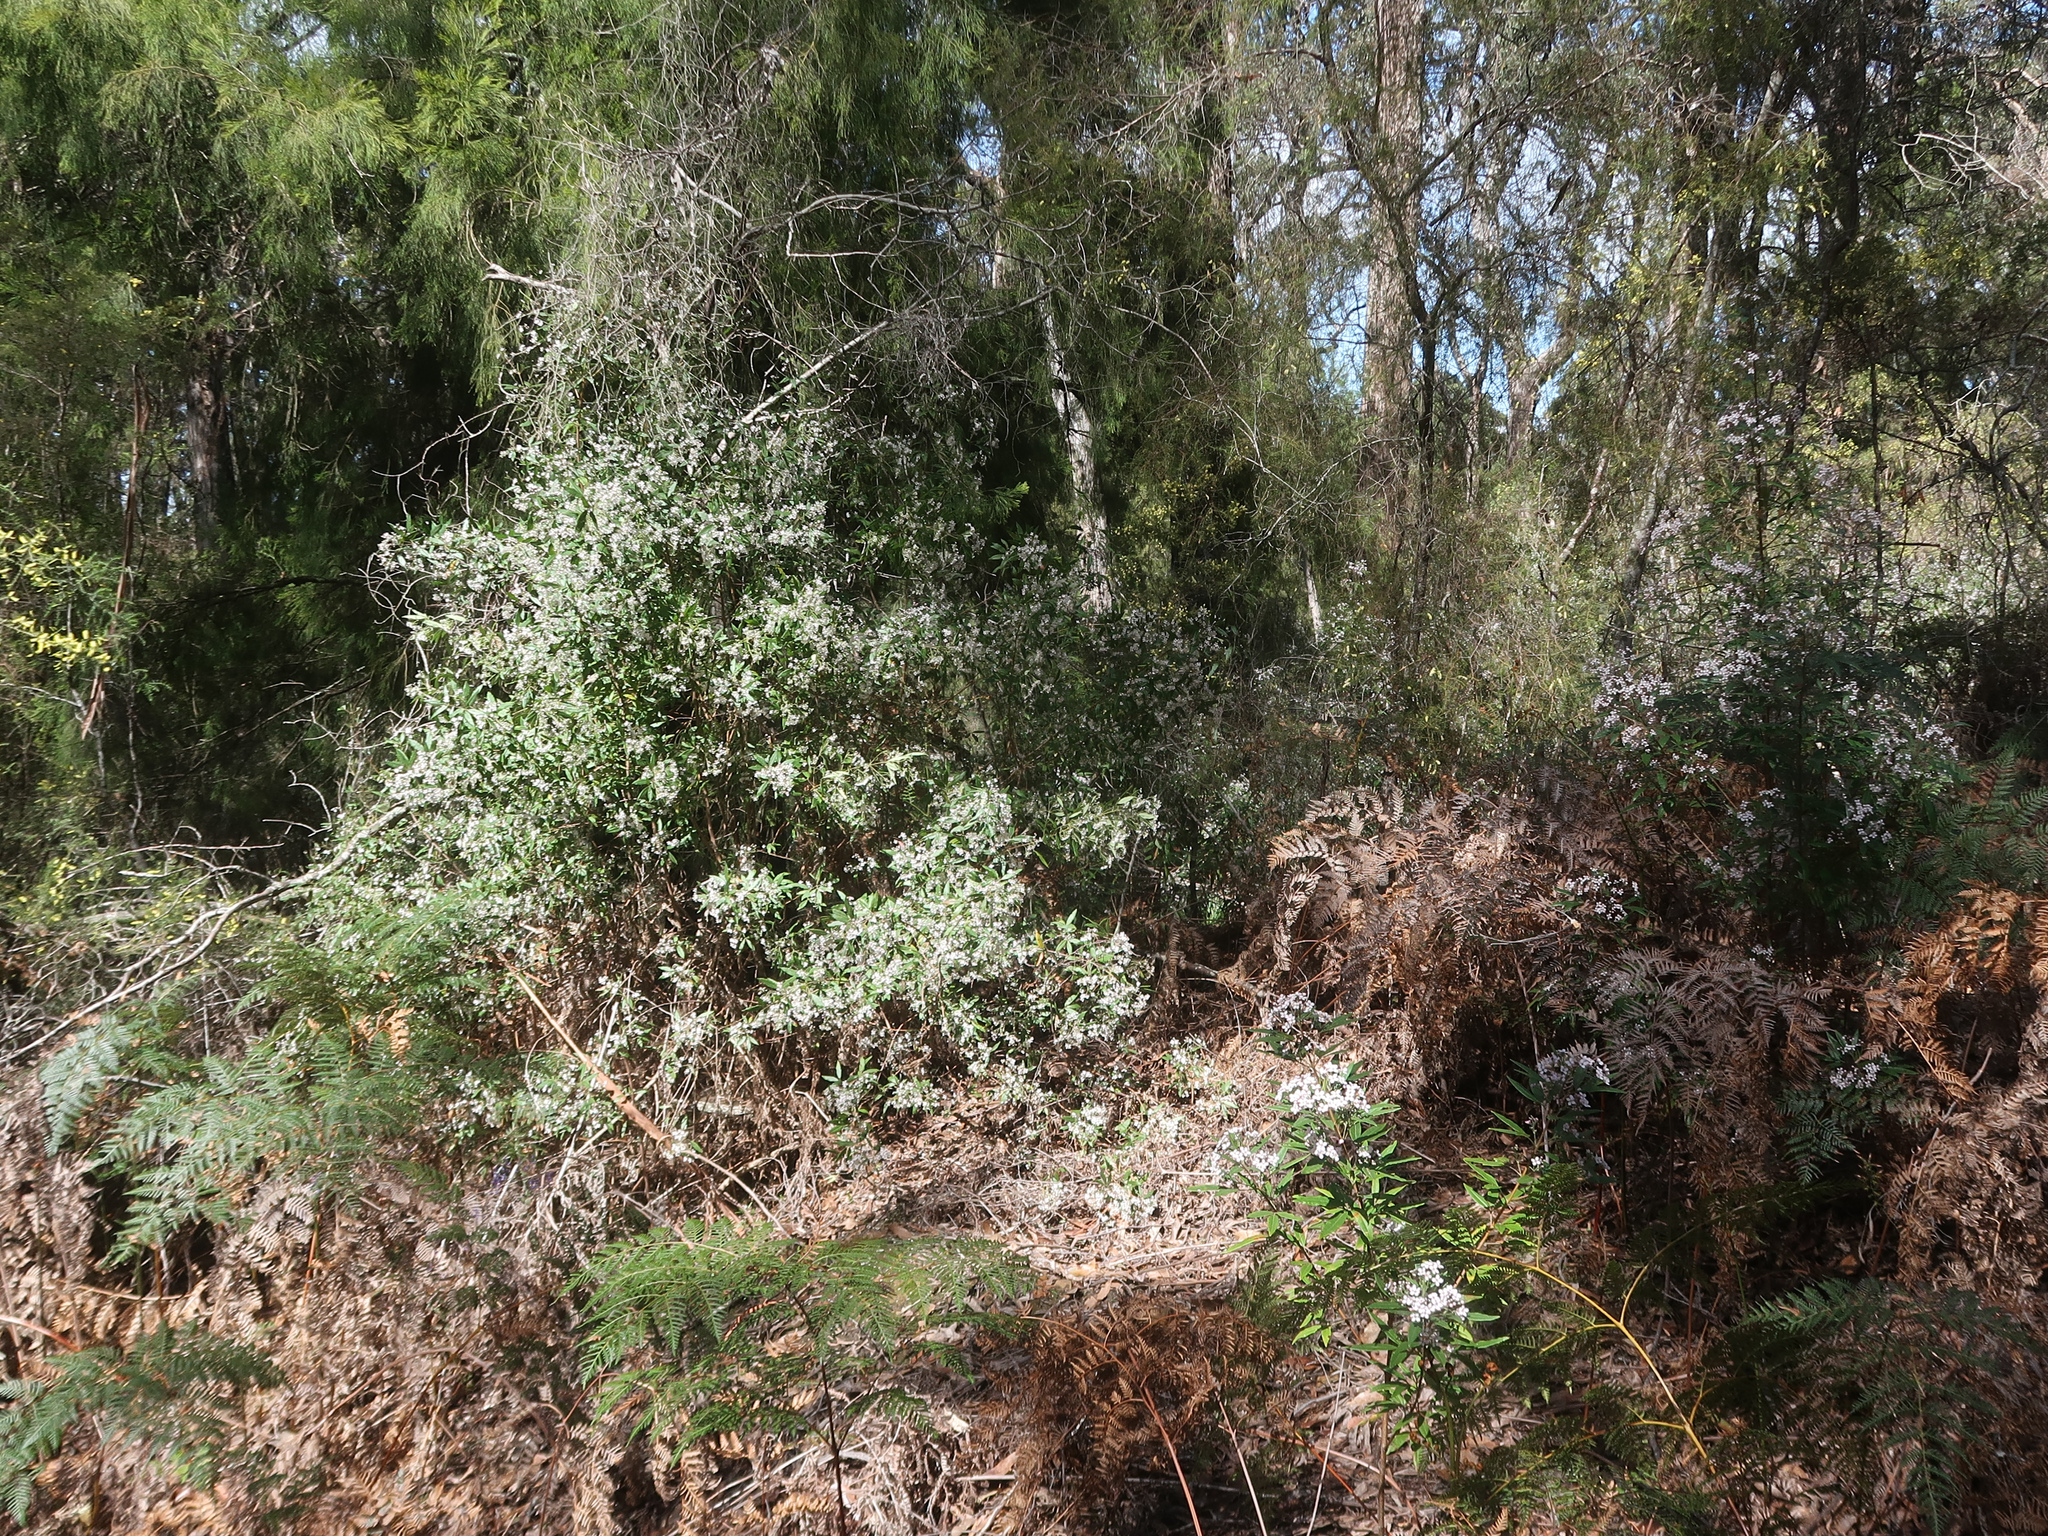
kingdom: Plantae
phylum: Tracheophyta
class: Magnoliopsida
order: Sapindales
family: Rutaceae
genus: Zieria
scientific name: Zieria arborescens
